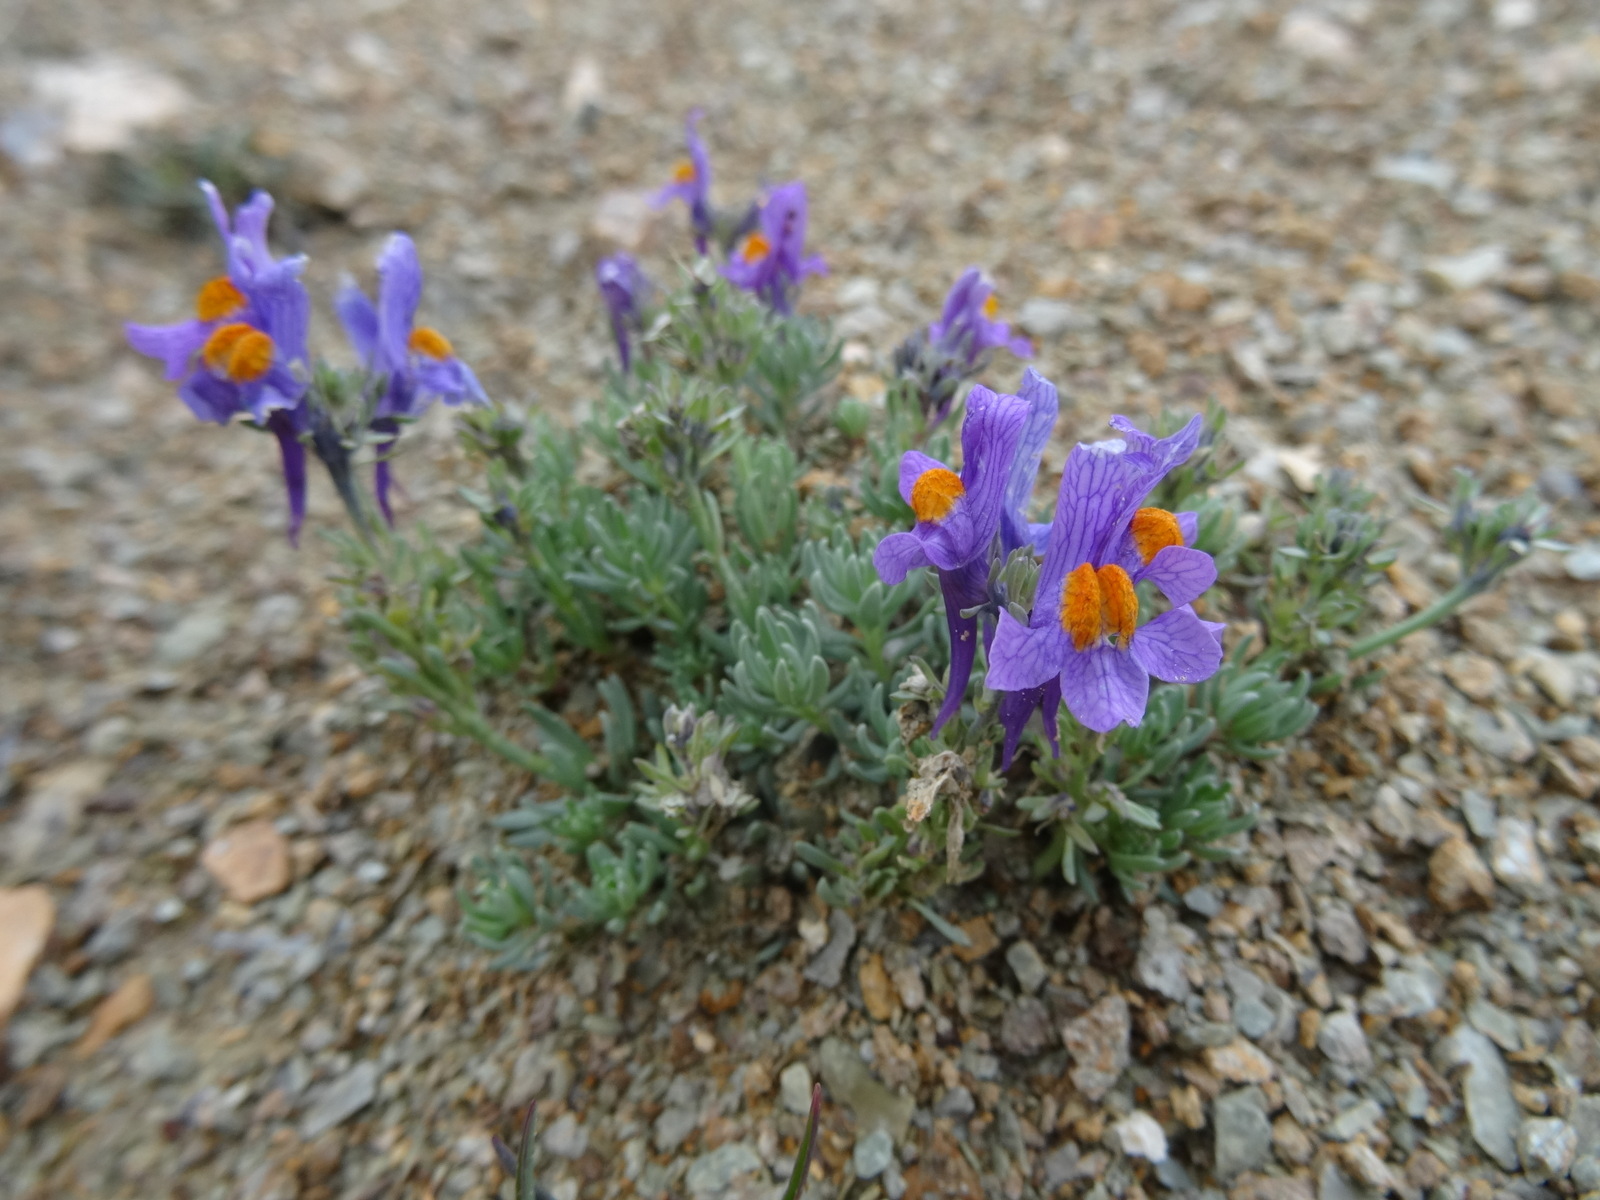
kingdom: Plantae
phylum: Tracheophyta
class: Magnoliopsida
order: Lamiales
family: Plantaginaceae
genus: Linaria
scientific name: Linaria alpina
